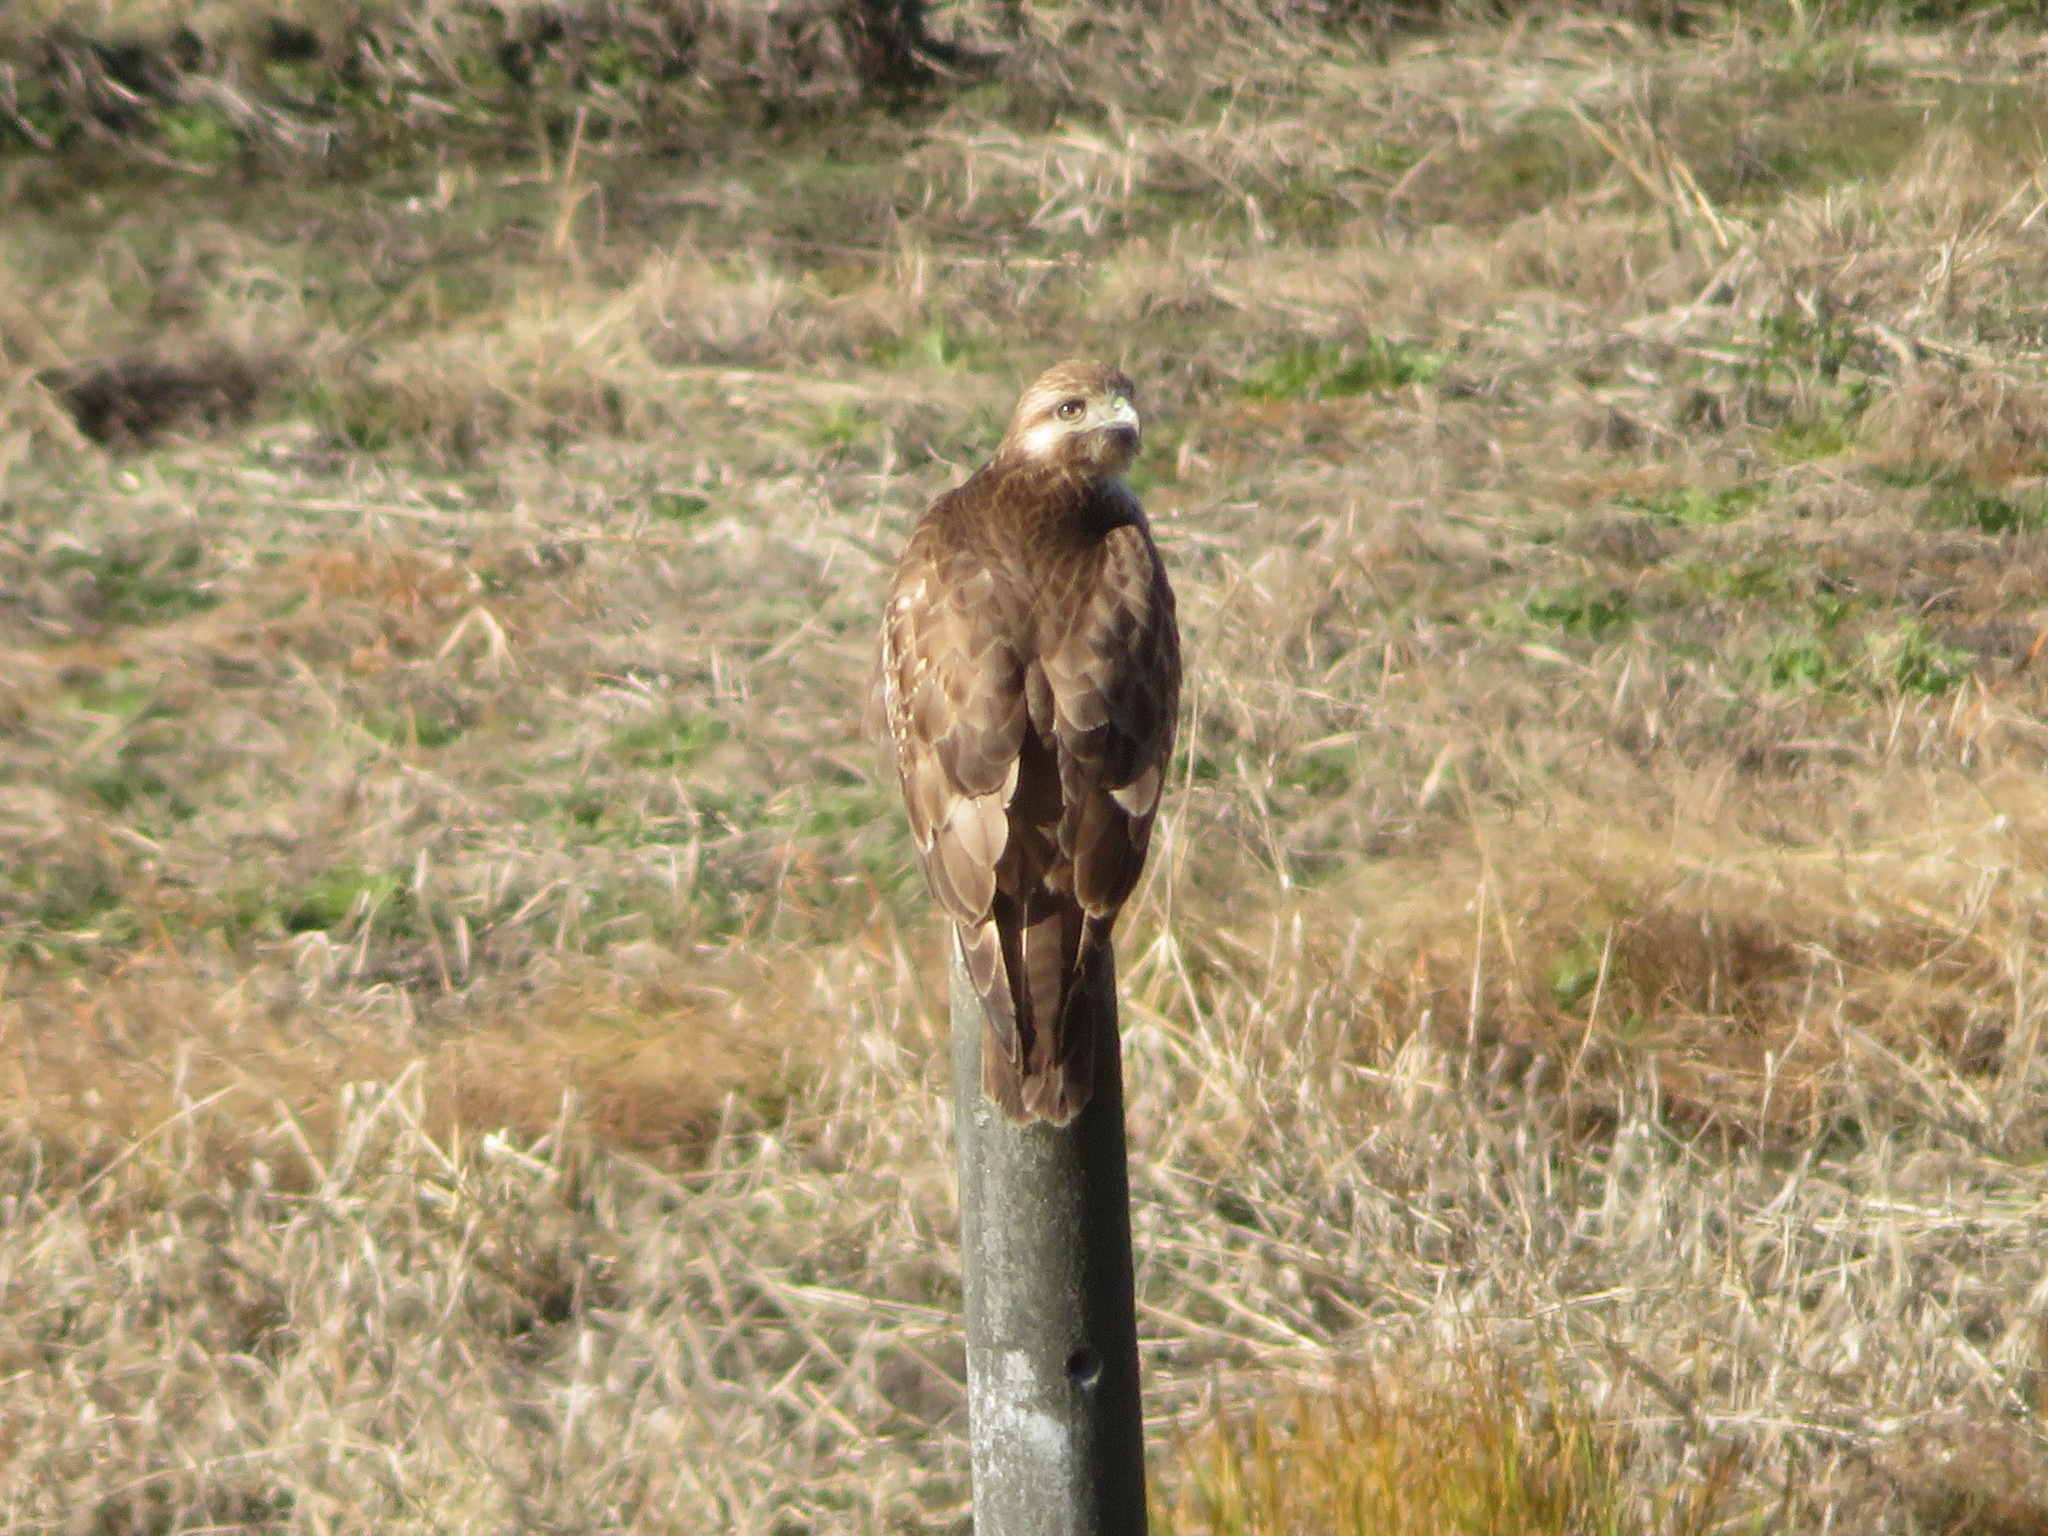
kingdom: Animalia
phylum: Chordata
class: Aves
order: Accipitriformes
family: Accipitridae
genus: Buteo
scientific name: Buteo japonicus
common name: Eastern buzzard
